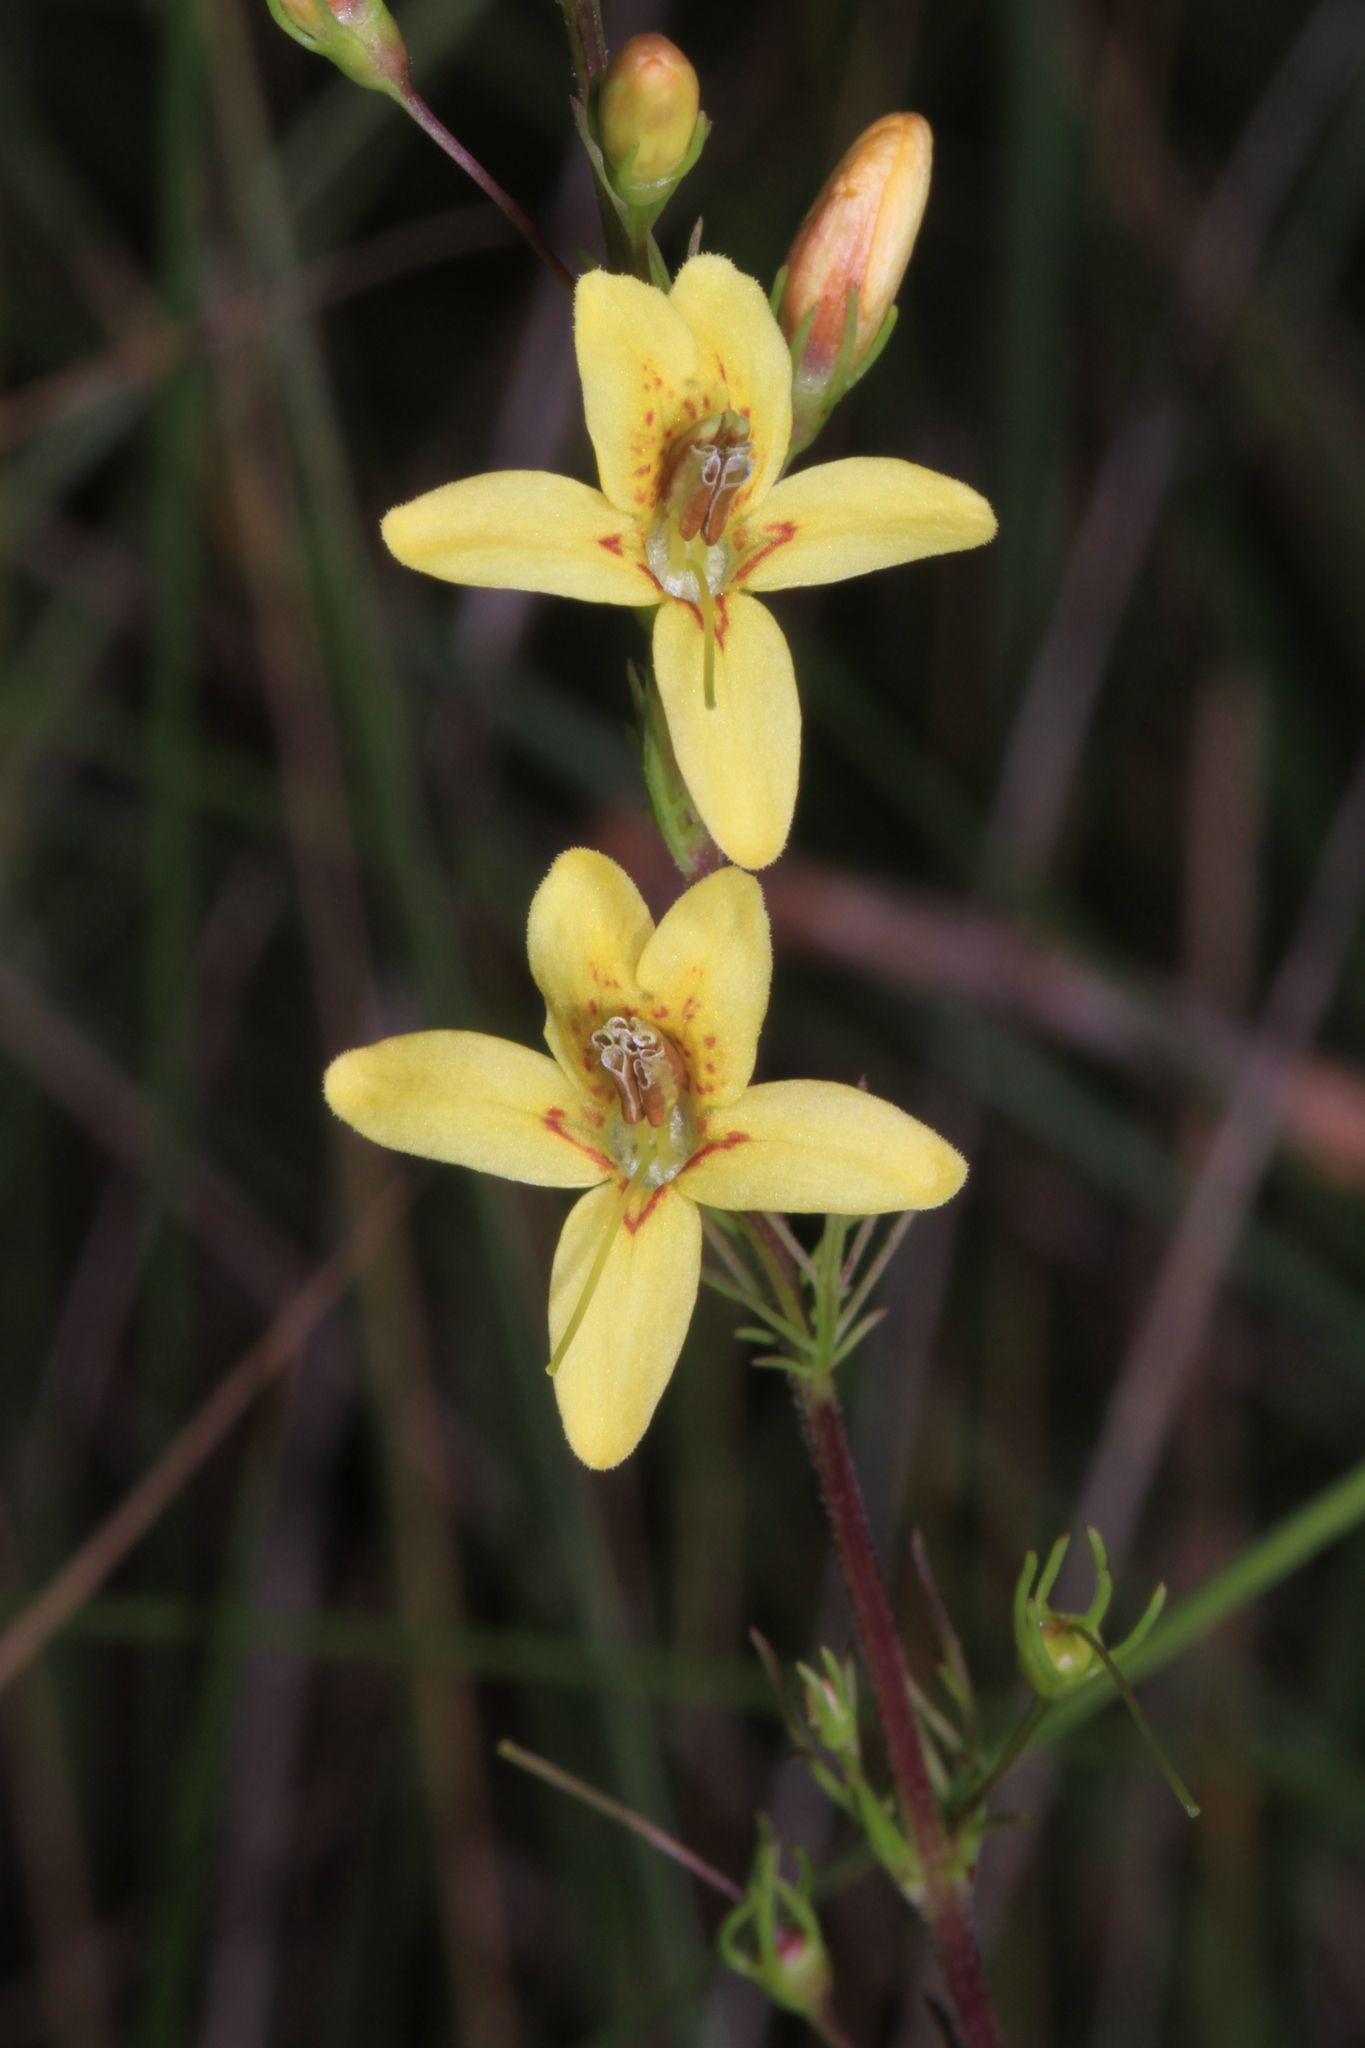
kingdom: Plantae
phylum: Tracheophyta
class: Magnoliopsida
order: Lamiales
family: Orobanchaceae
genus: Seymeria
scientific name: Seymeria cassioides
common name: Yaupon black-senna
